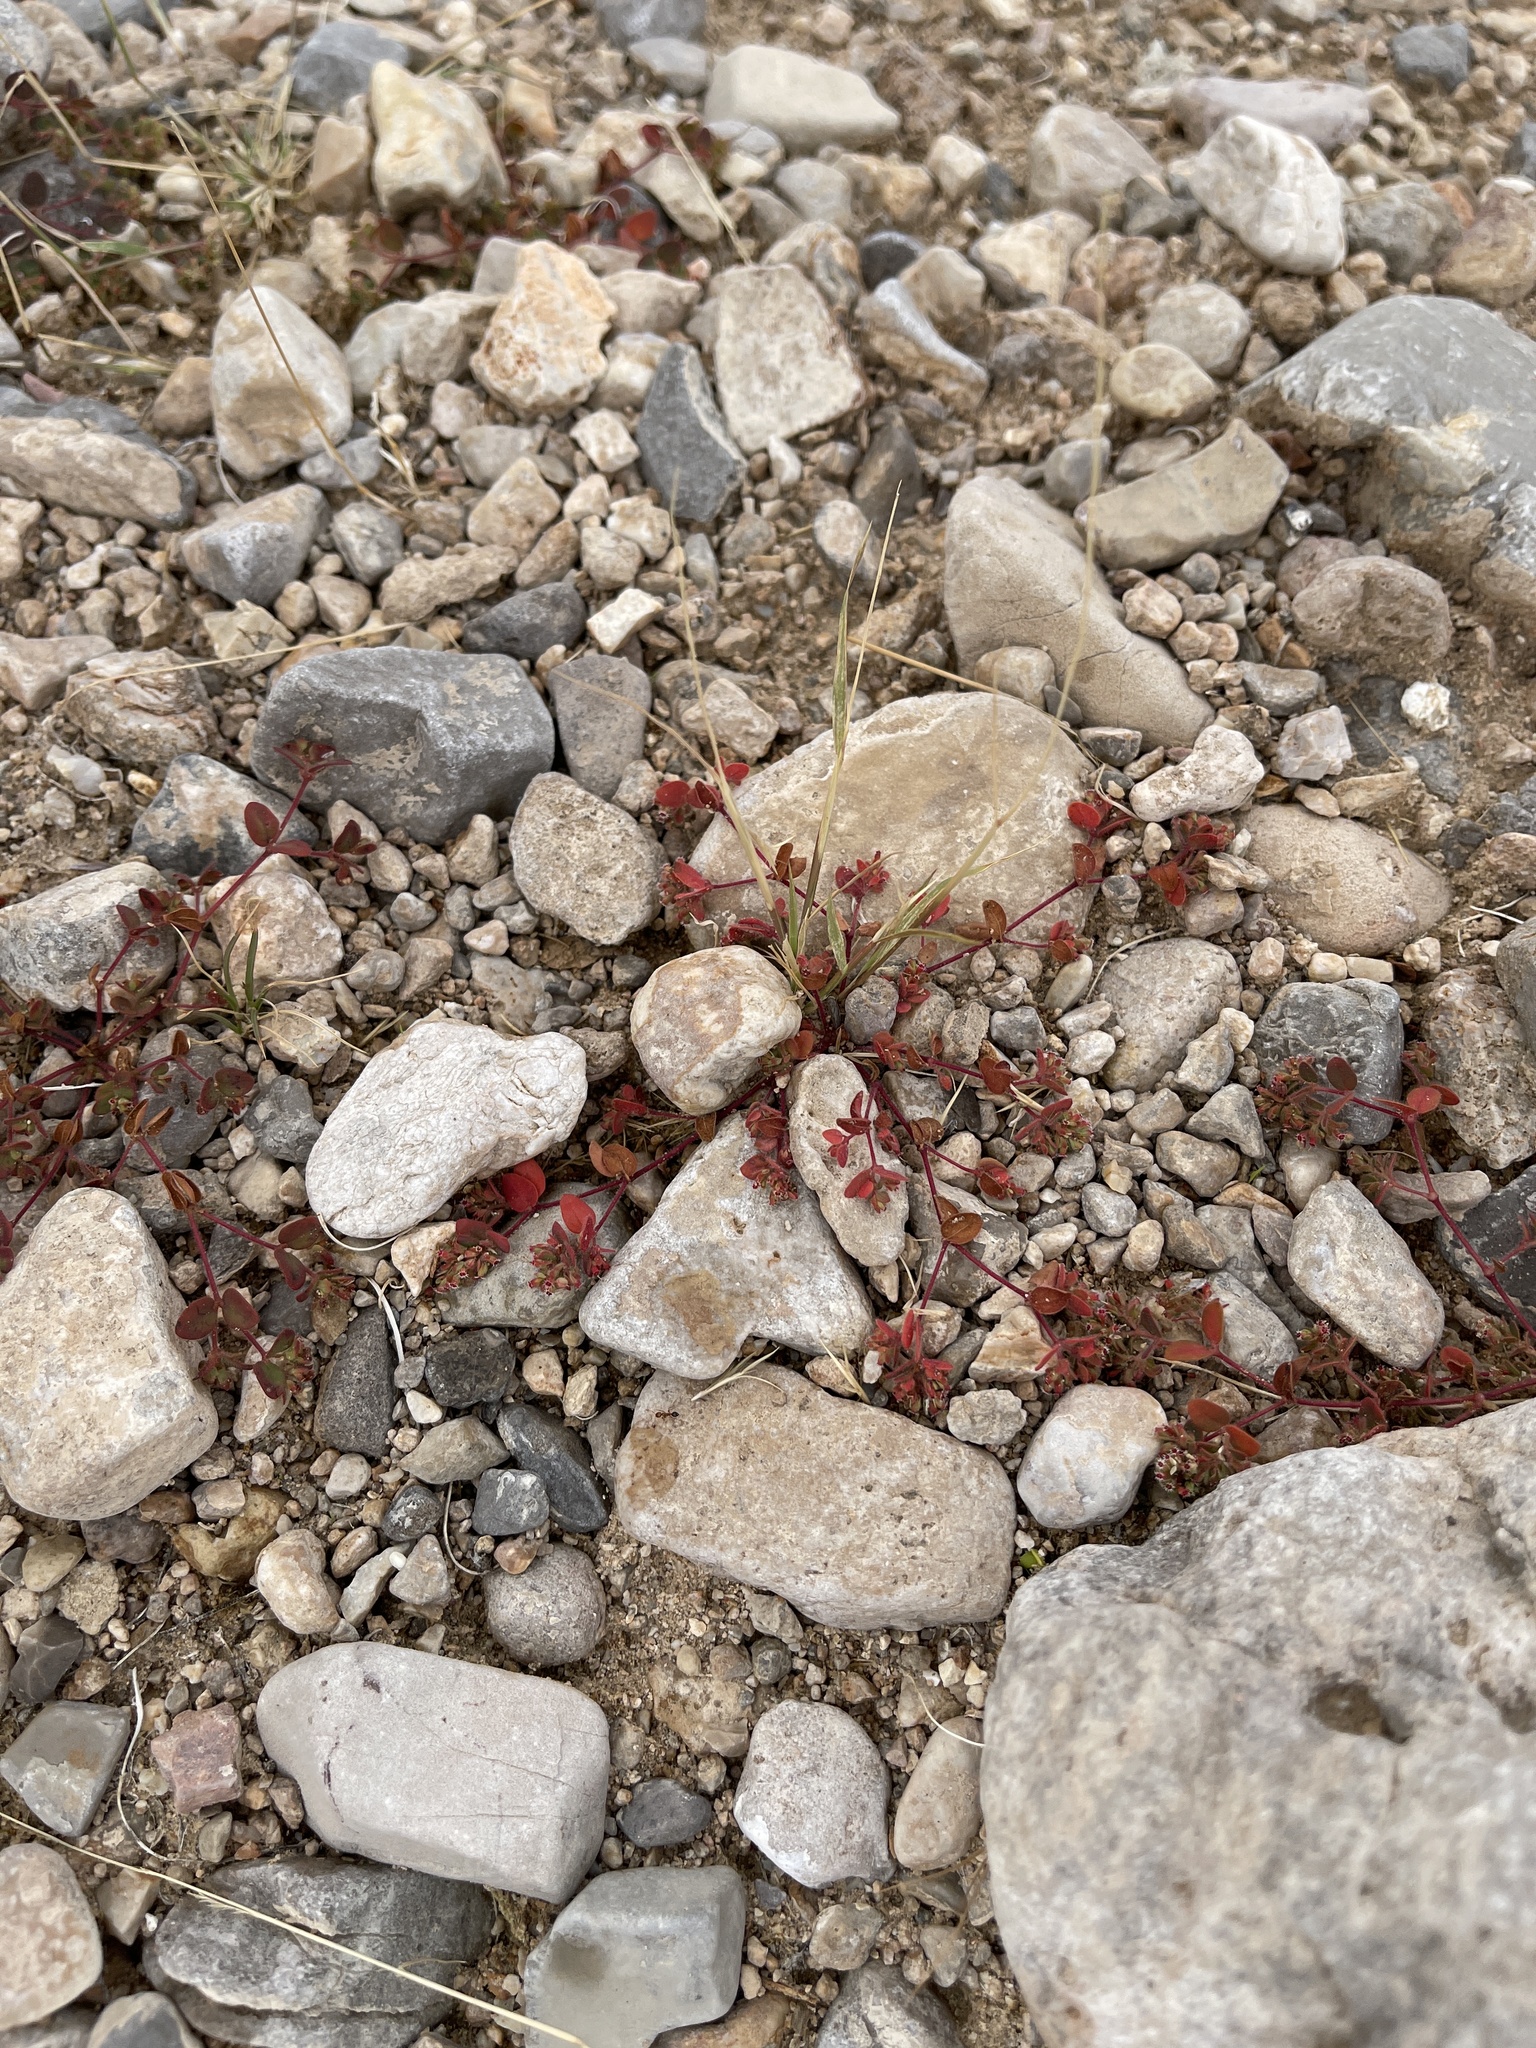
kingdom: Plantae
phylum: Tracheophyta
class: Magnoliopsida
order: Malpighiales
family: Euphorbiaceae
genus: Euphorbia
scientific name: Euphorbia setiloba
